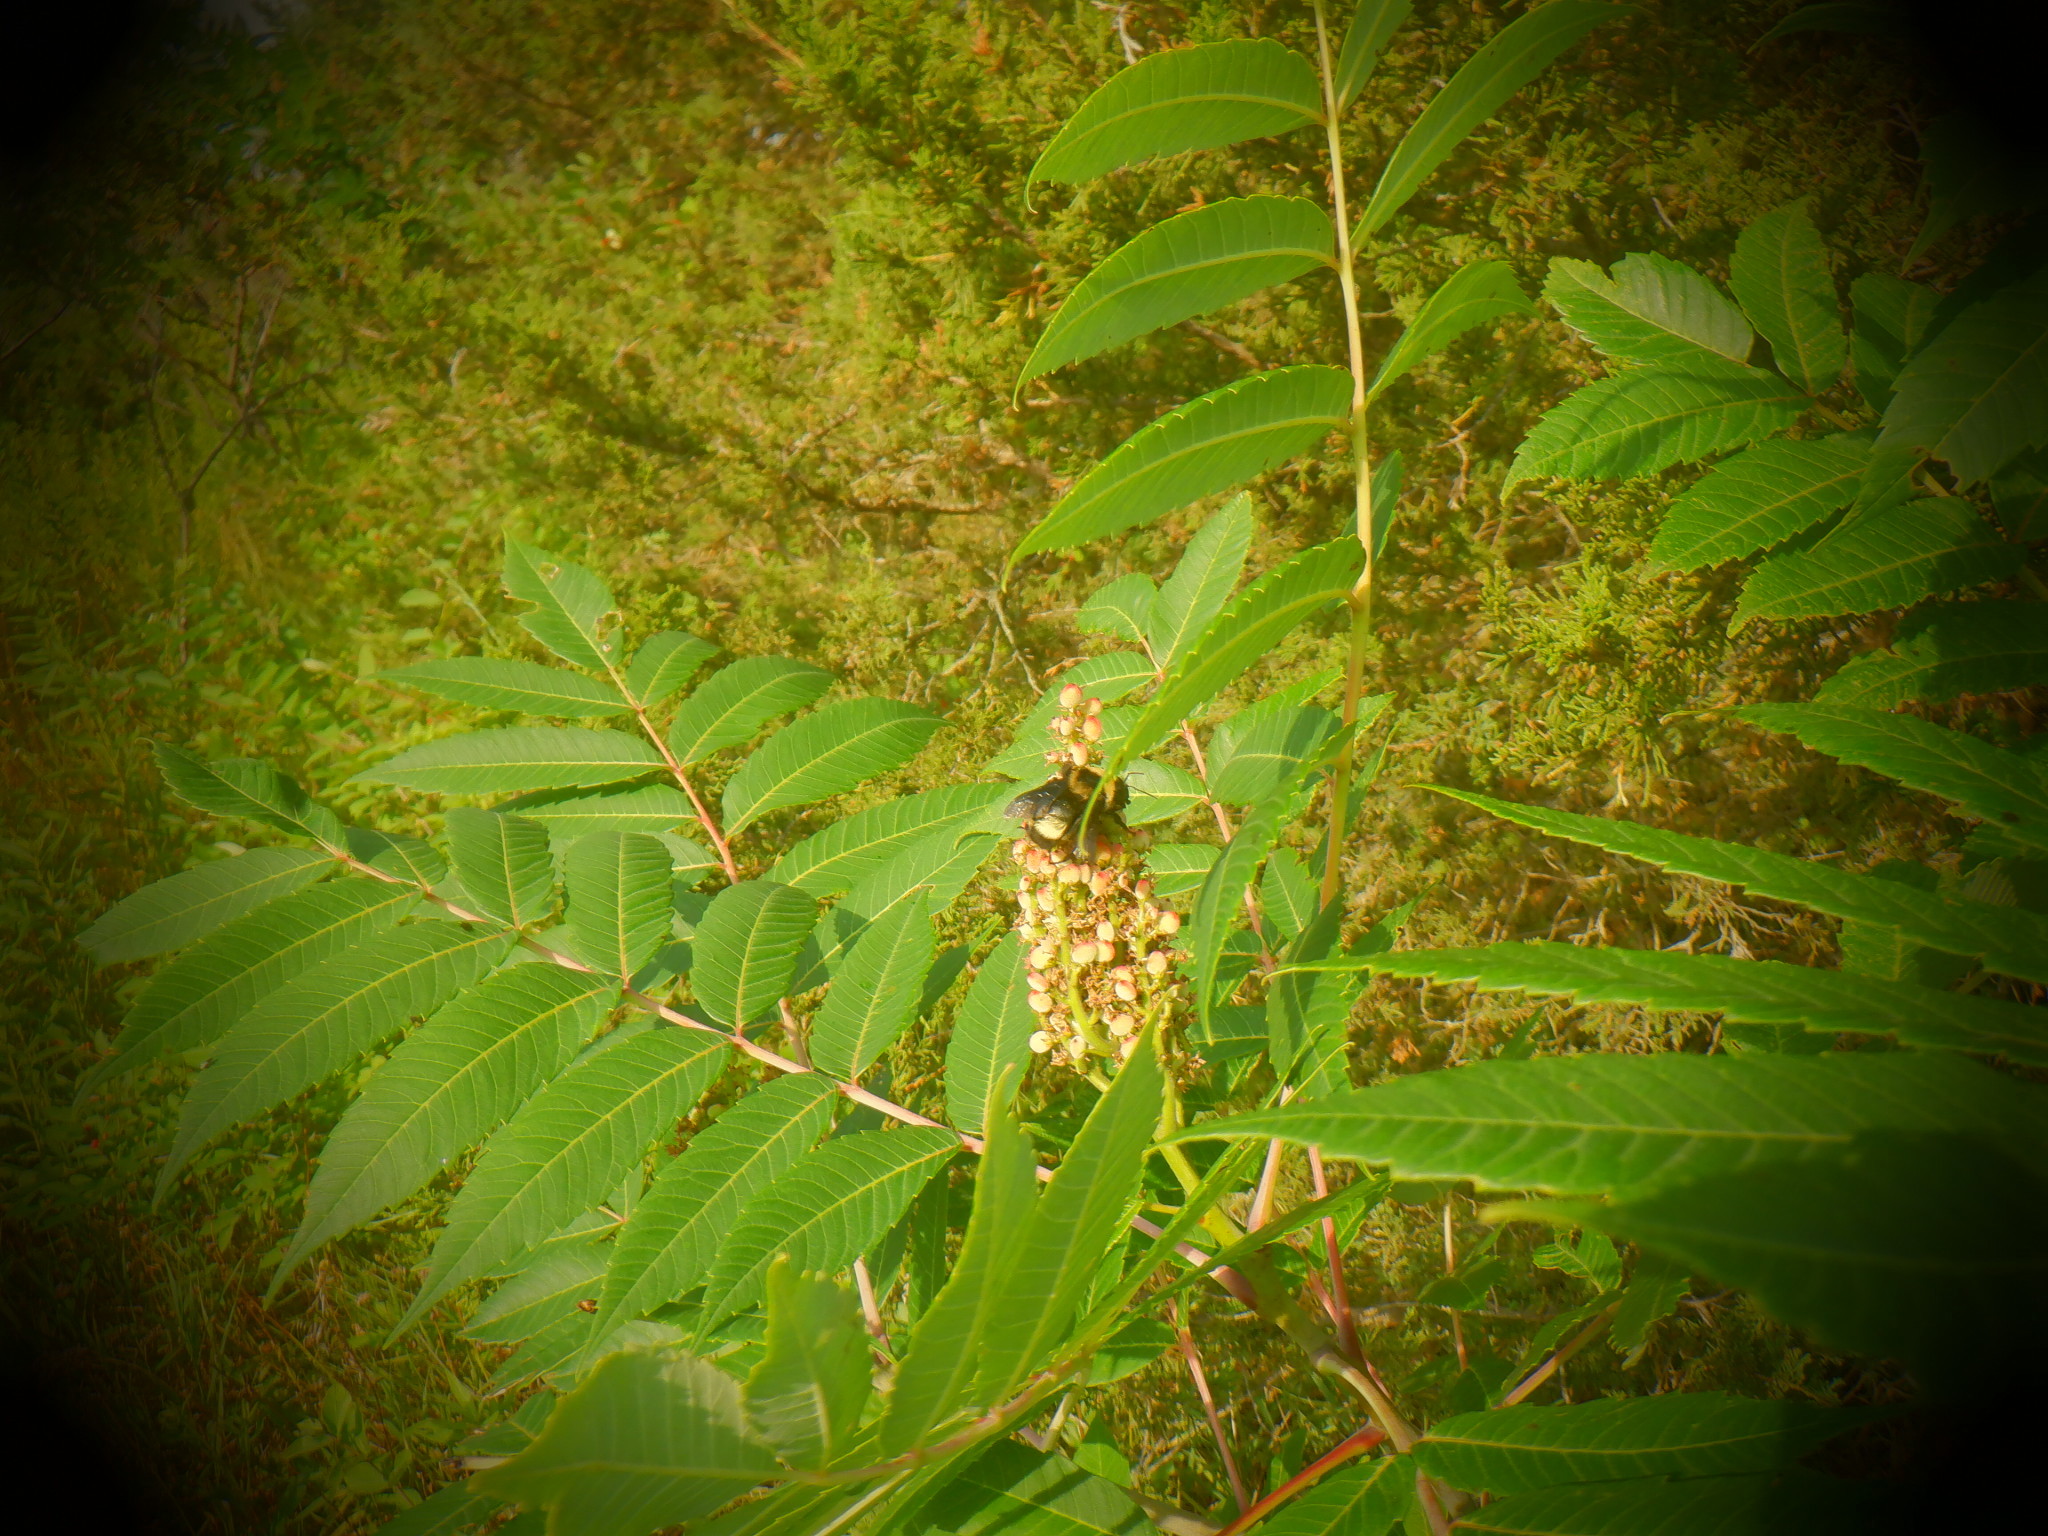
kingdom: Plantae
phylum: Tracheophyta
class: Magnoliopsida
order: Sapindales
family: Anacardiaceae
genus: Rhus
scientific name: Rhus glabra
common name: Scarlet sumac
